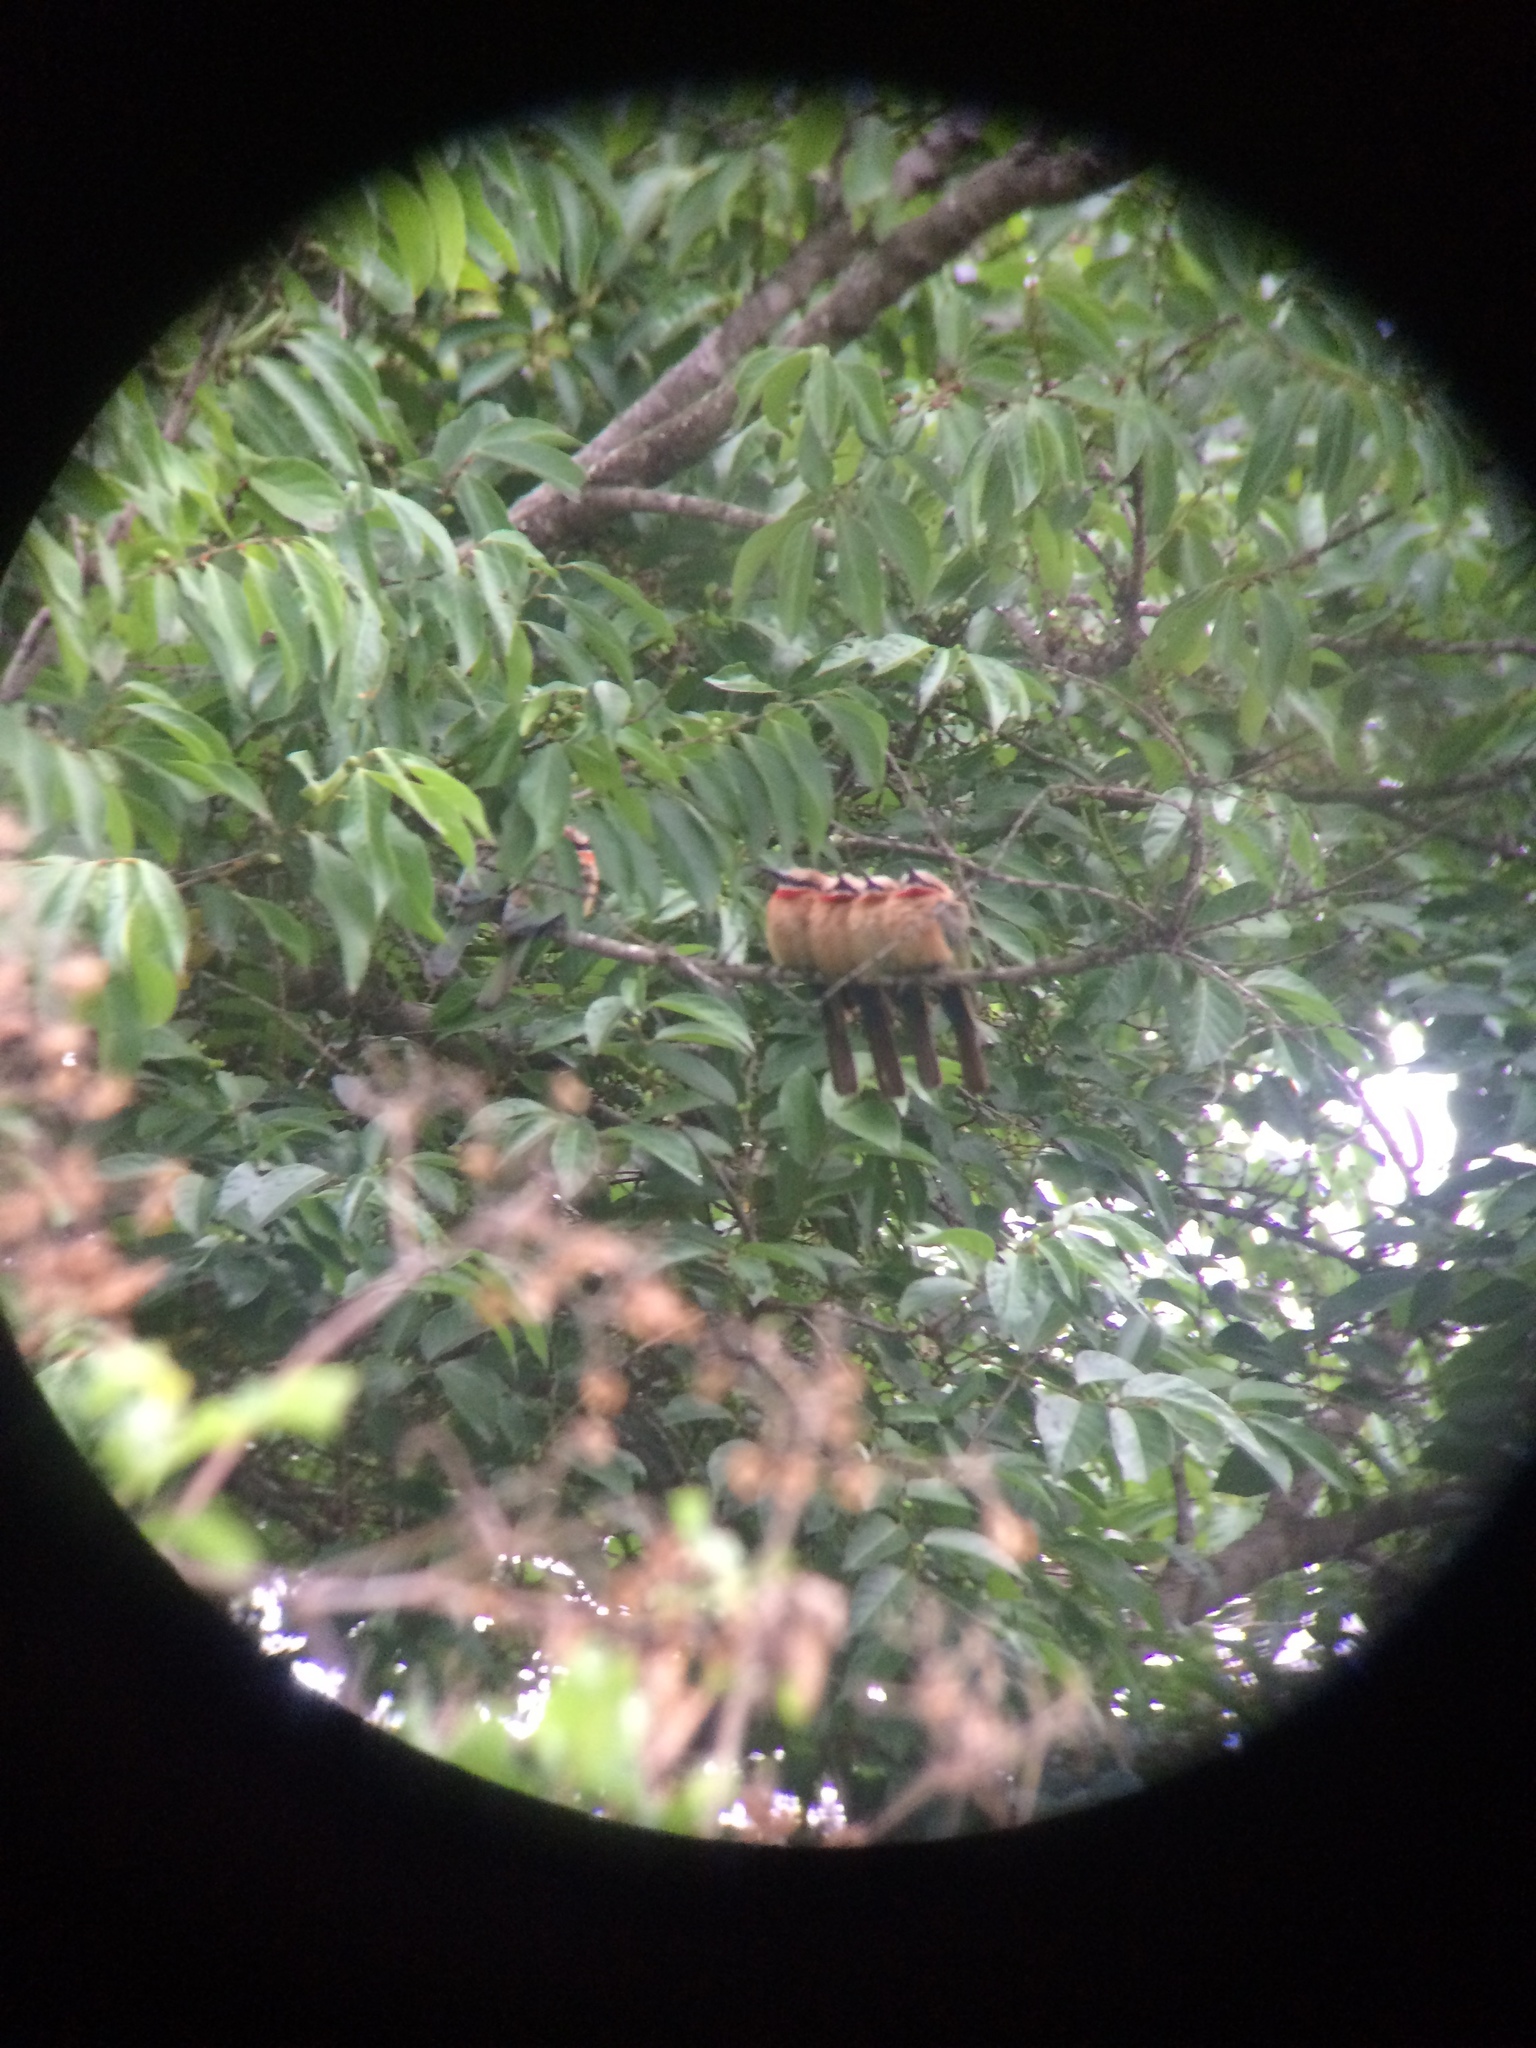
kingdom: Animalia
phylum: Chordata
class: Aves
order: Coraciiformes
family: Meropidae
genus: Merops
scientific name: Merops bullockoides
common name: White-fronted bee-eater
